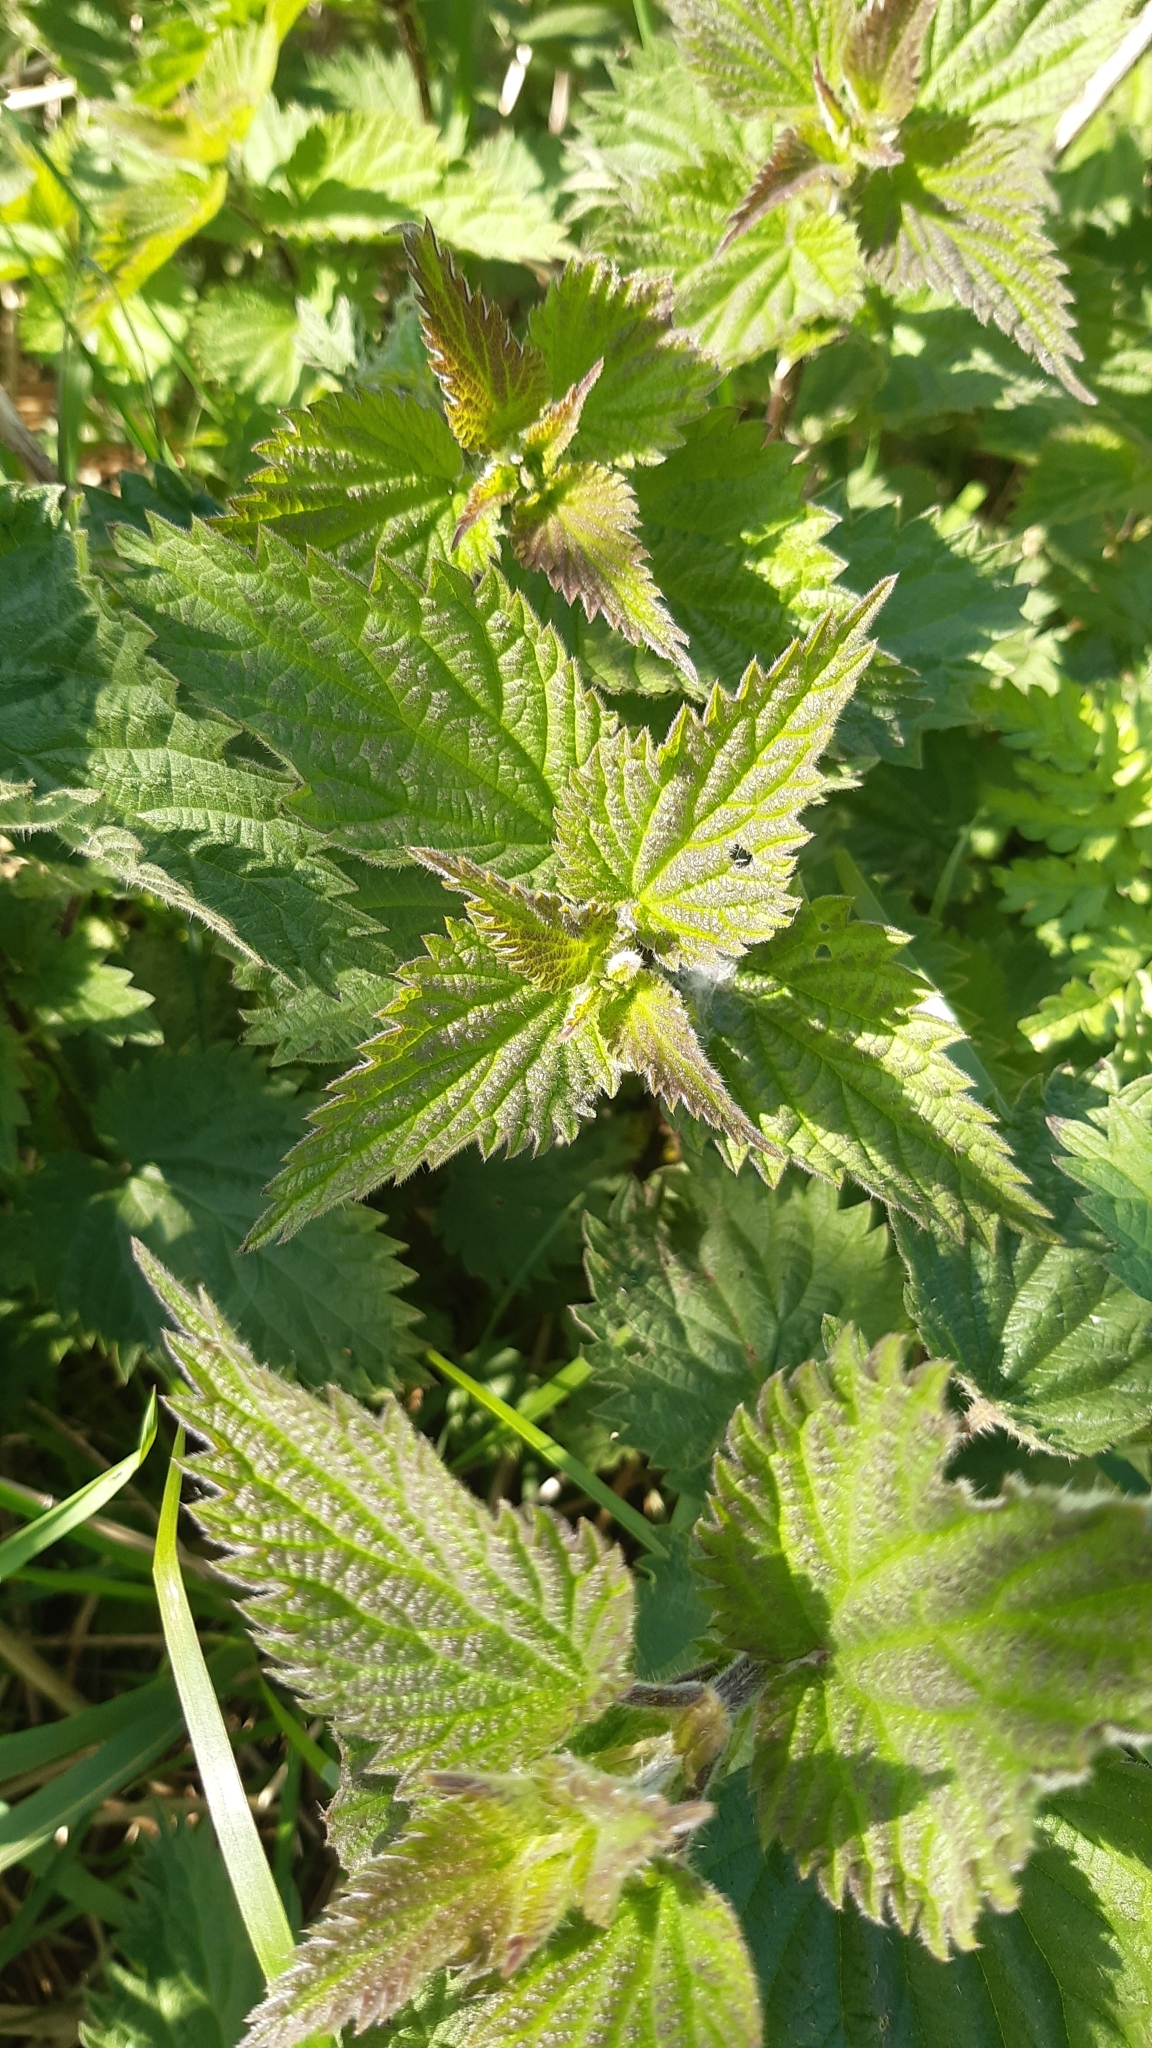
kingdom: Plantae
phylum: Tracheophyta
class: Magnoliopsida
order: Rosales
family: Urticaceae
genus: Urtica
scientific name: Urtica dioica
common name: Common nettle
